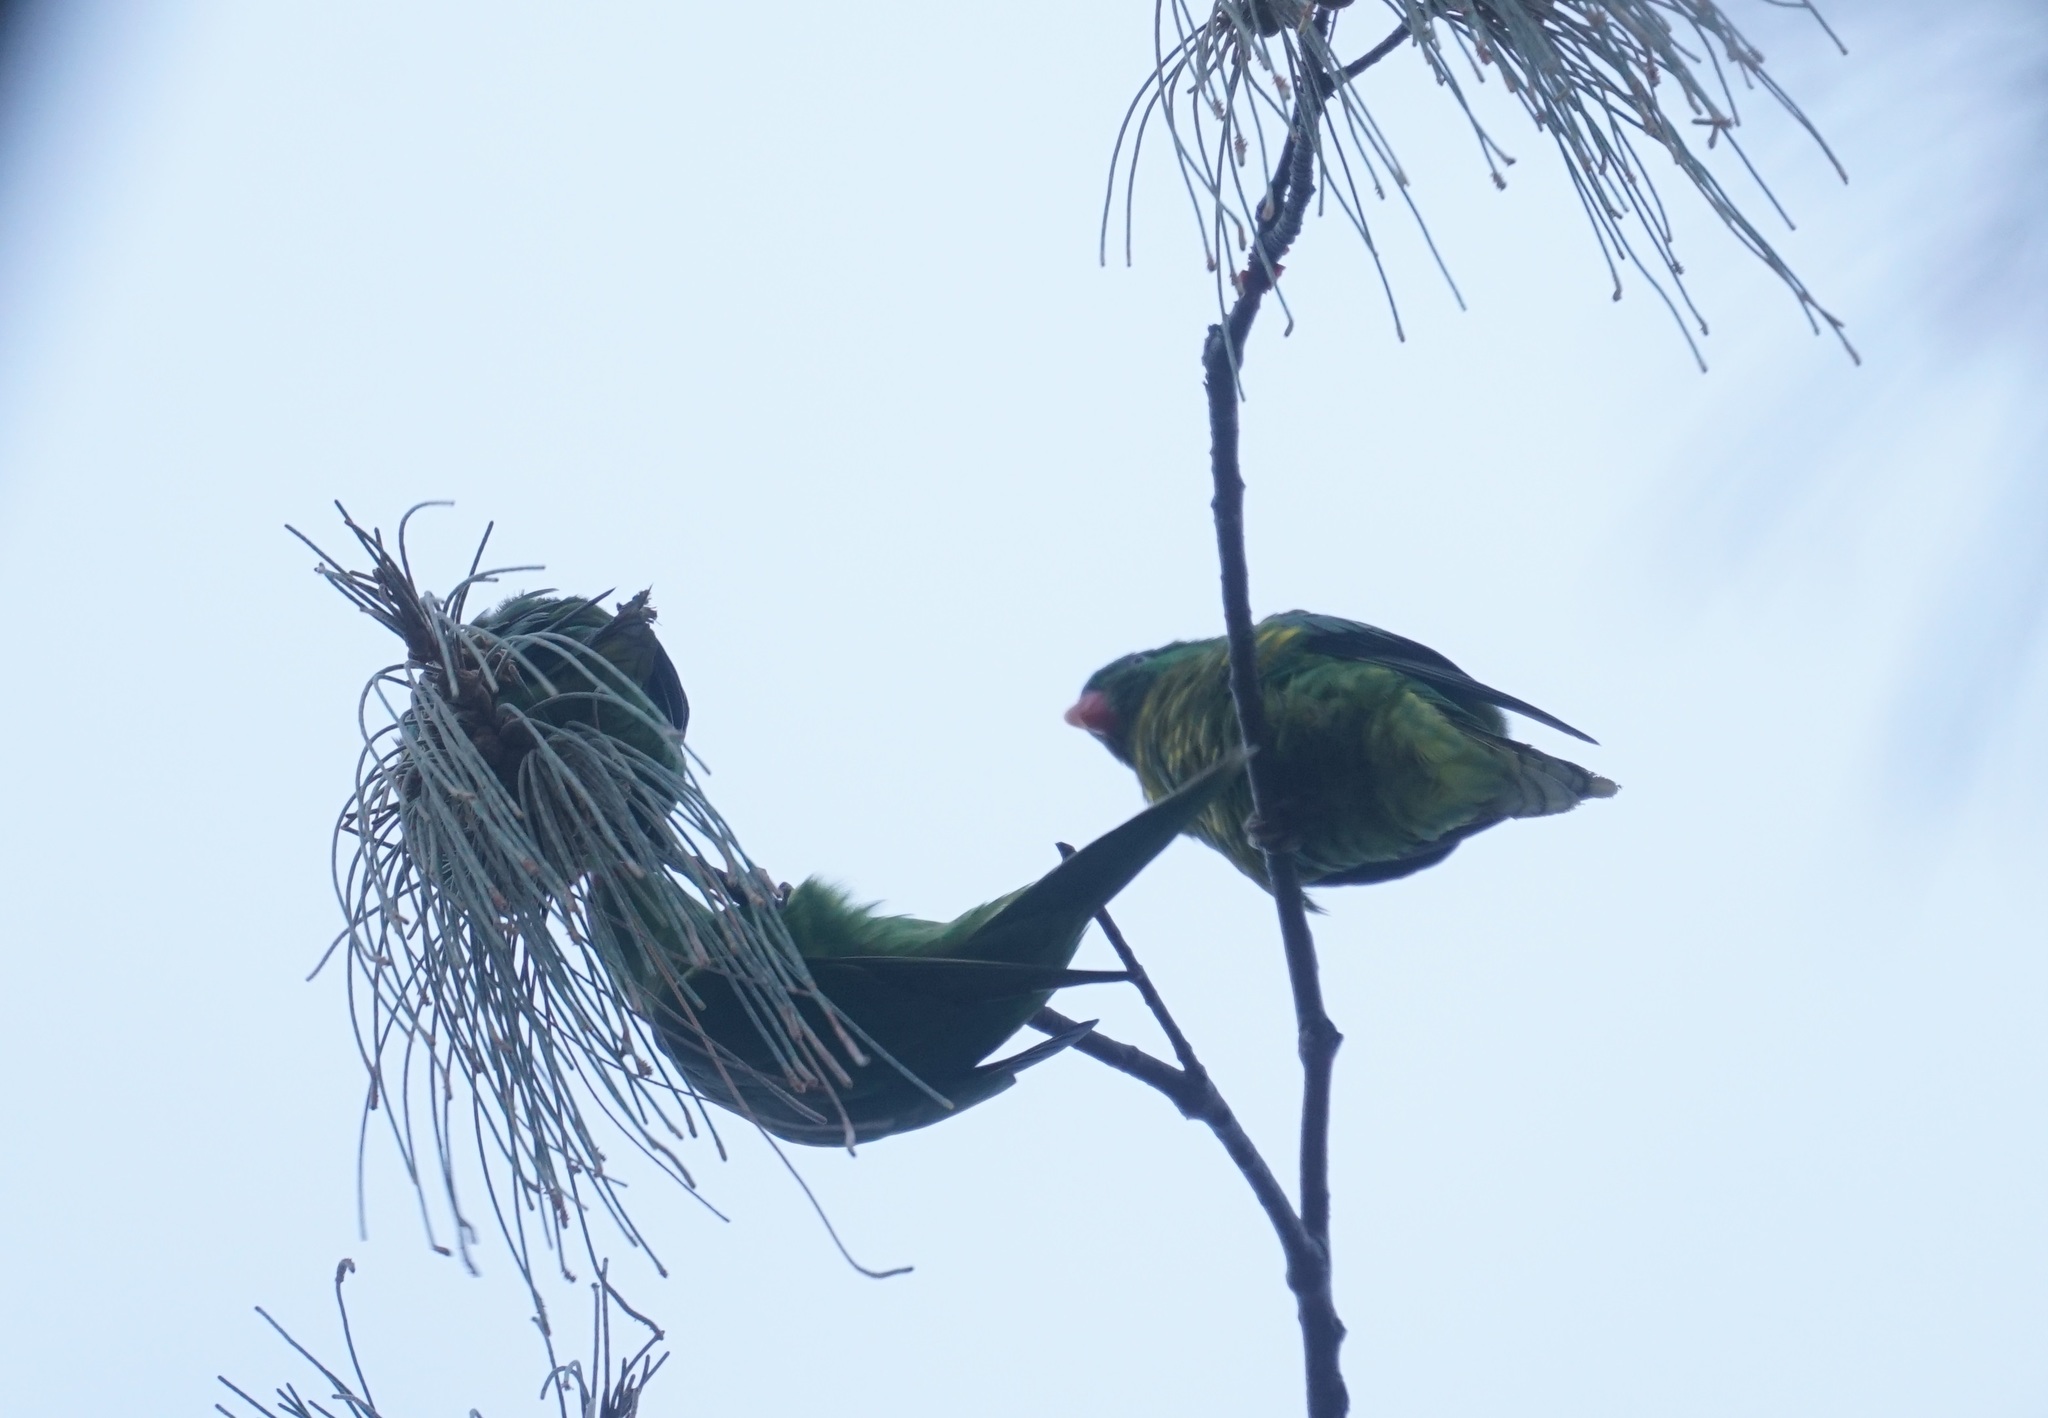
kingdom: Animalia
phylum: Chordata
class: Aves
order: Psittaciformes
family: Psittacidae
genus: Trichoglossus
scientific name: Trichoglossus chlorolepidotus
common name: Scaly-breasted lorikeet
